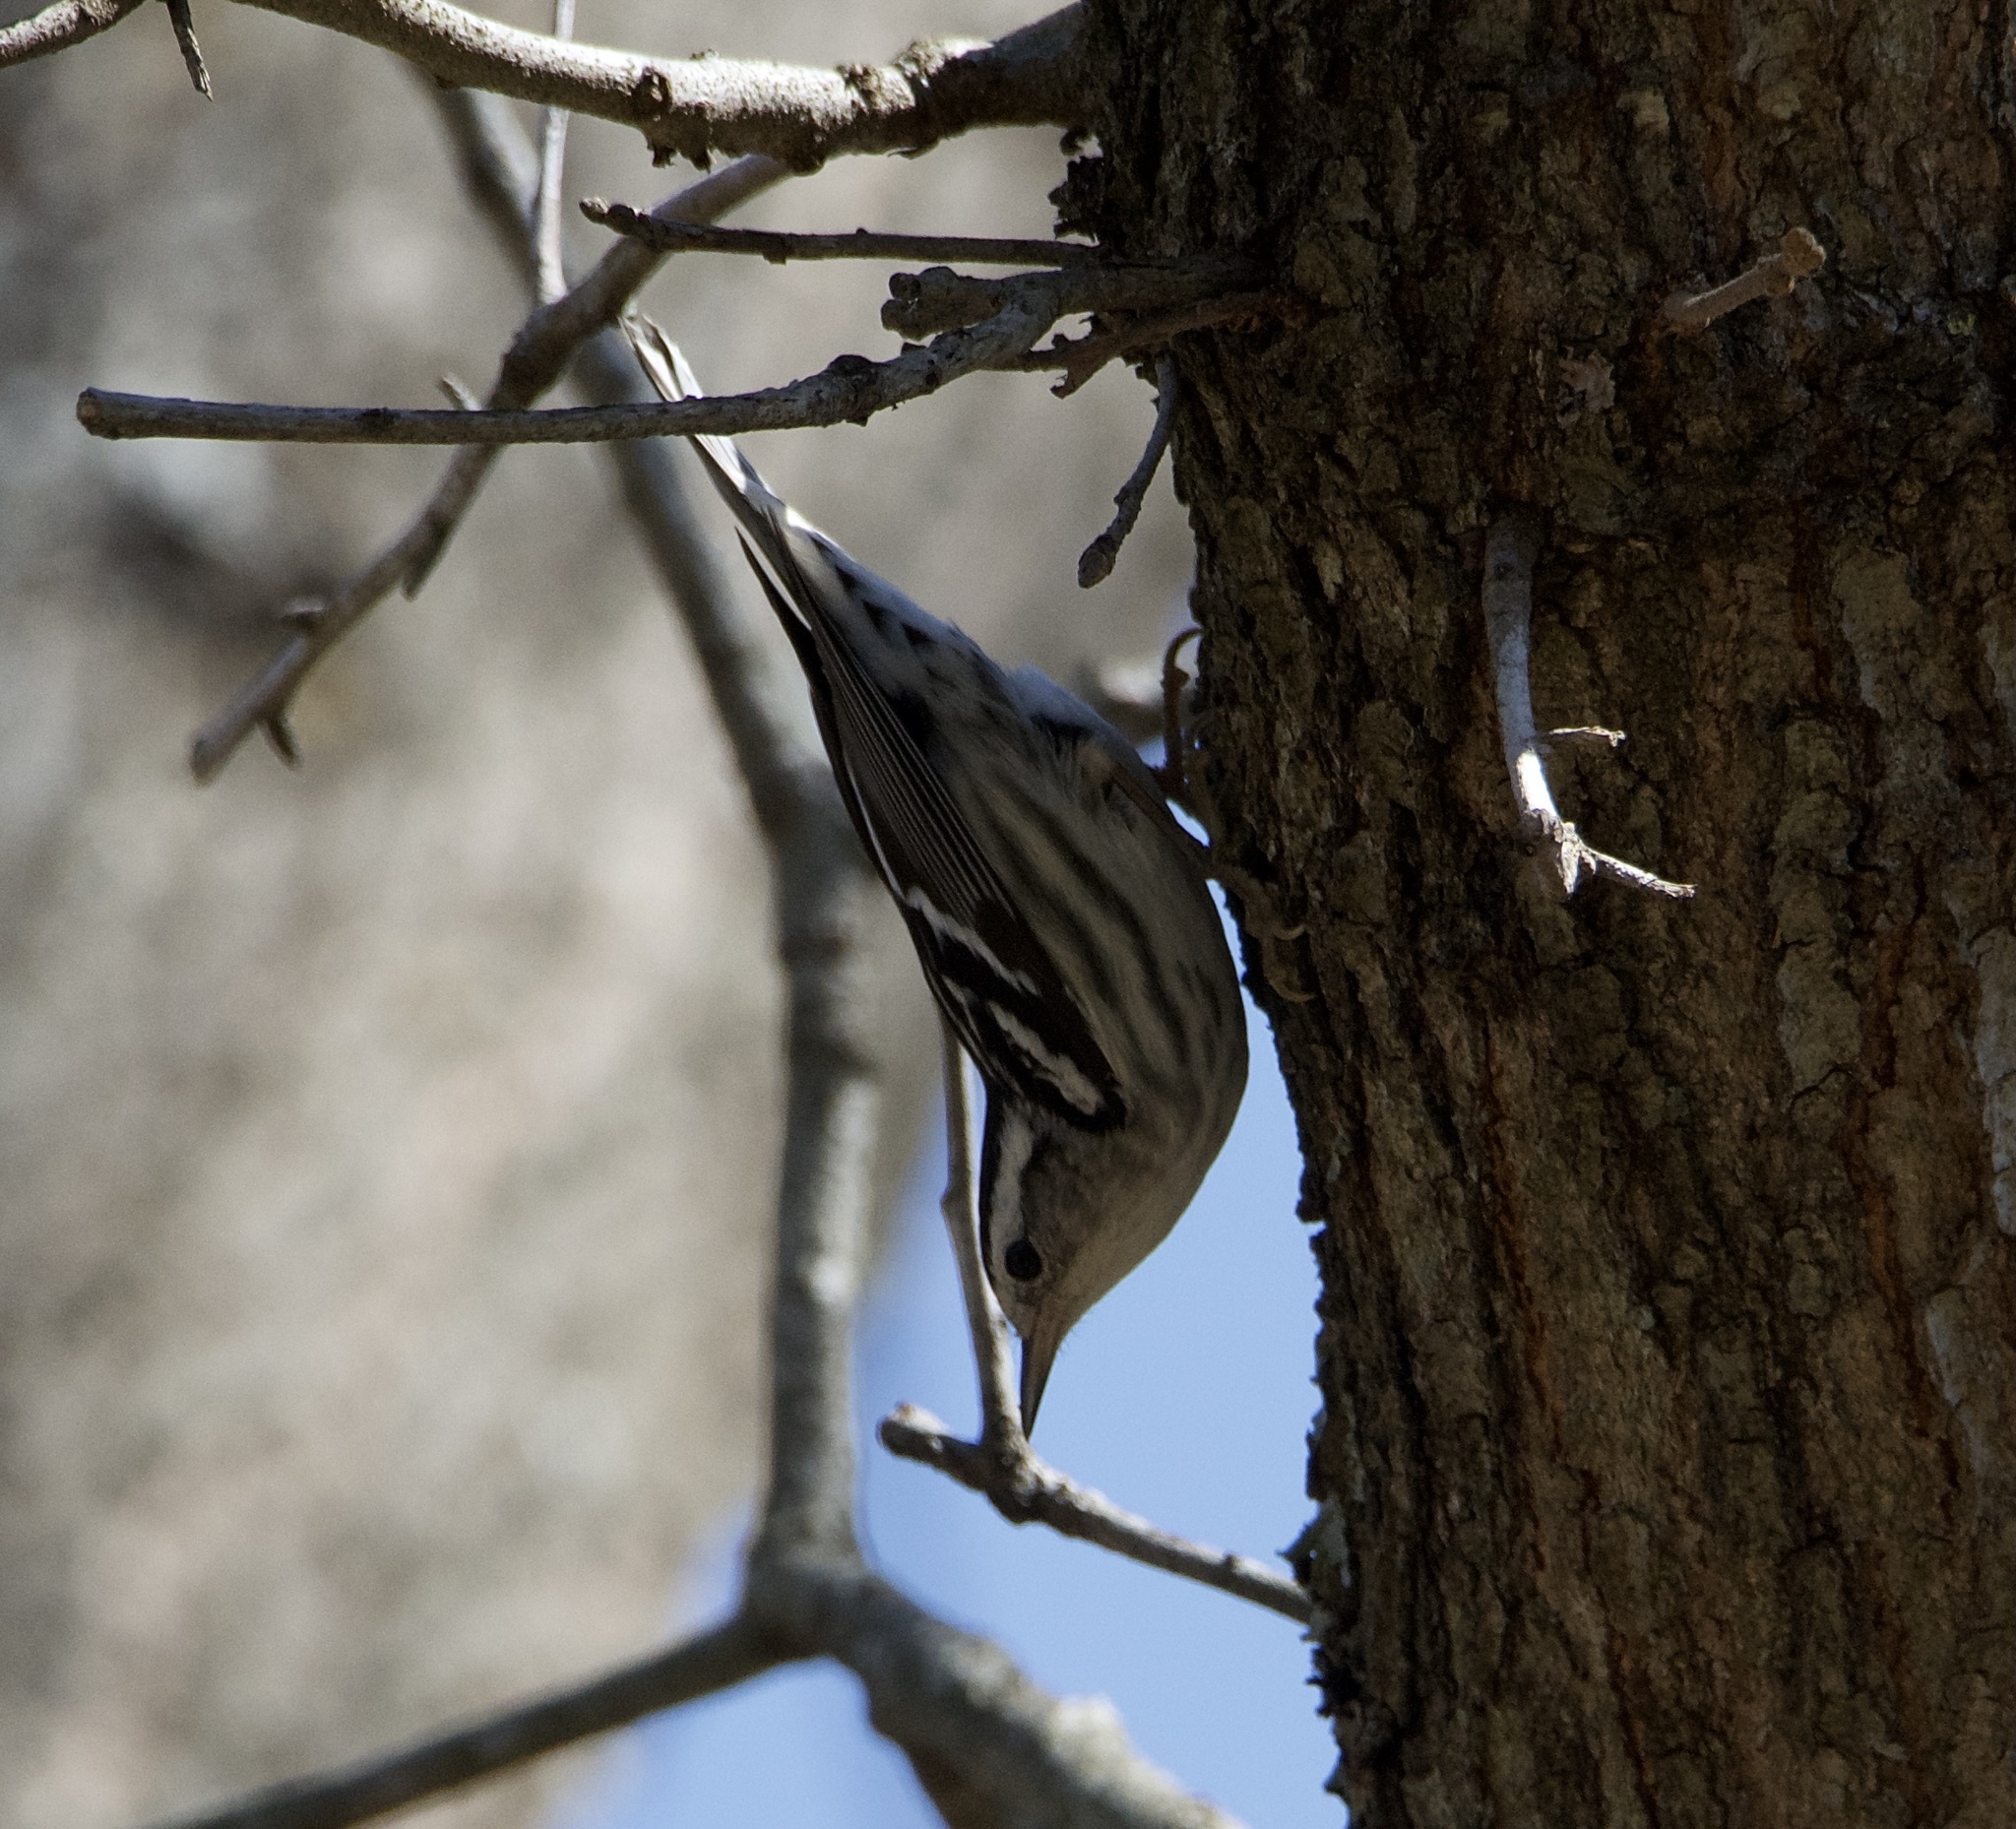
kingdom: Animalia
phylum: Chordata
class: Aves
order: Passeriformes
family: Parulidae
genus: Mniotilta
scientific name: Mniotilta varia
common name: Black-and-white warbler
